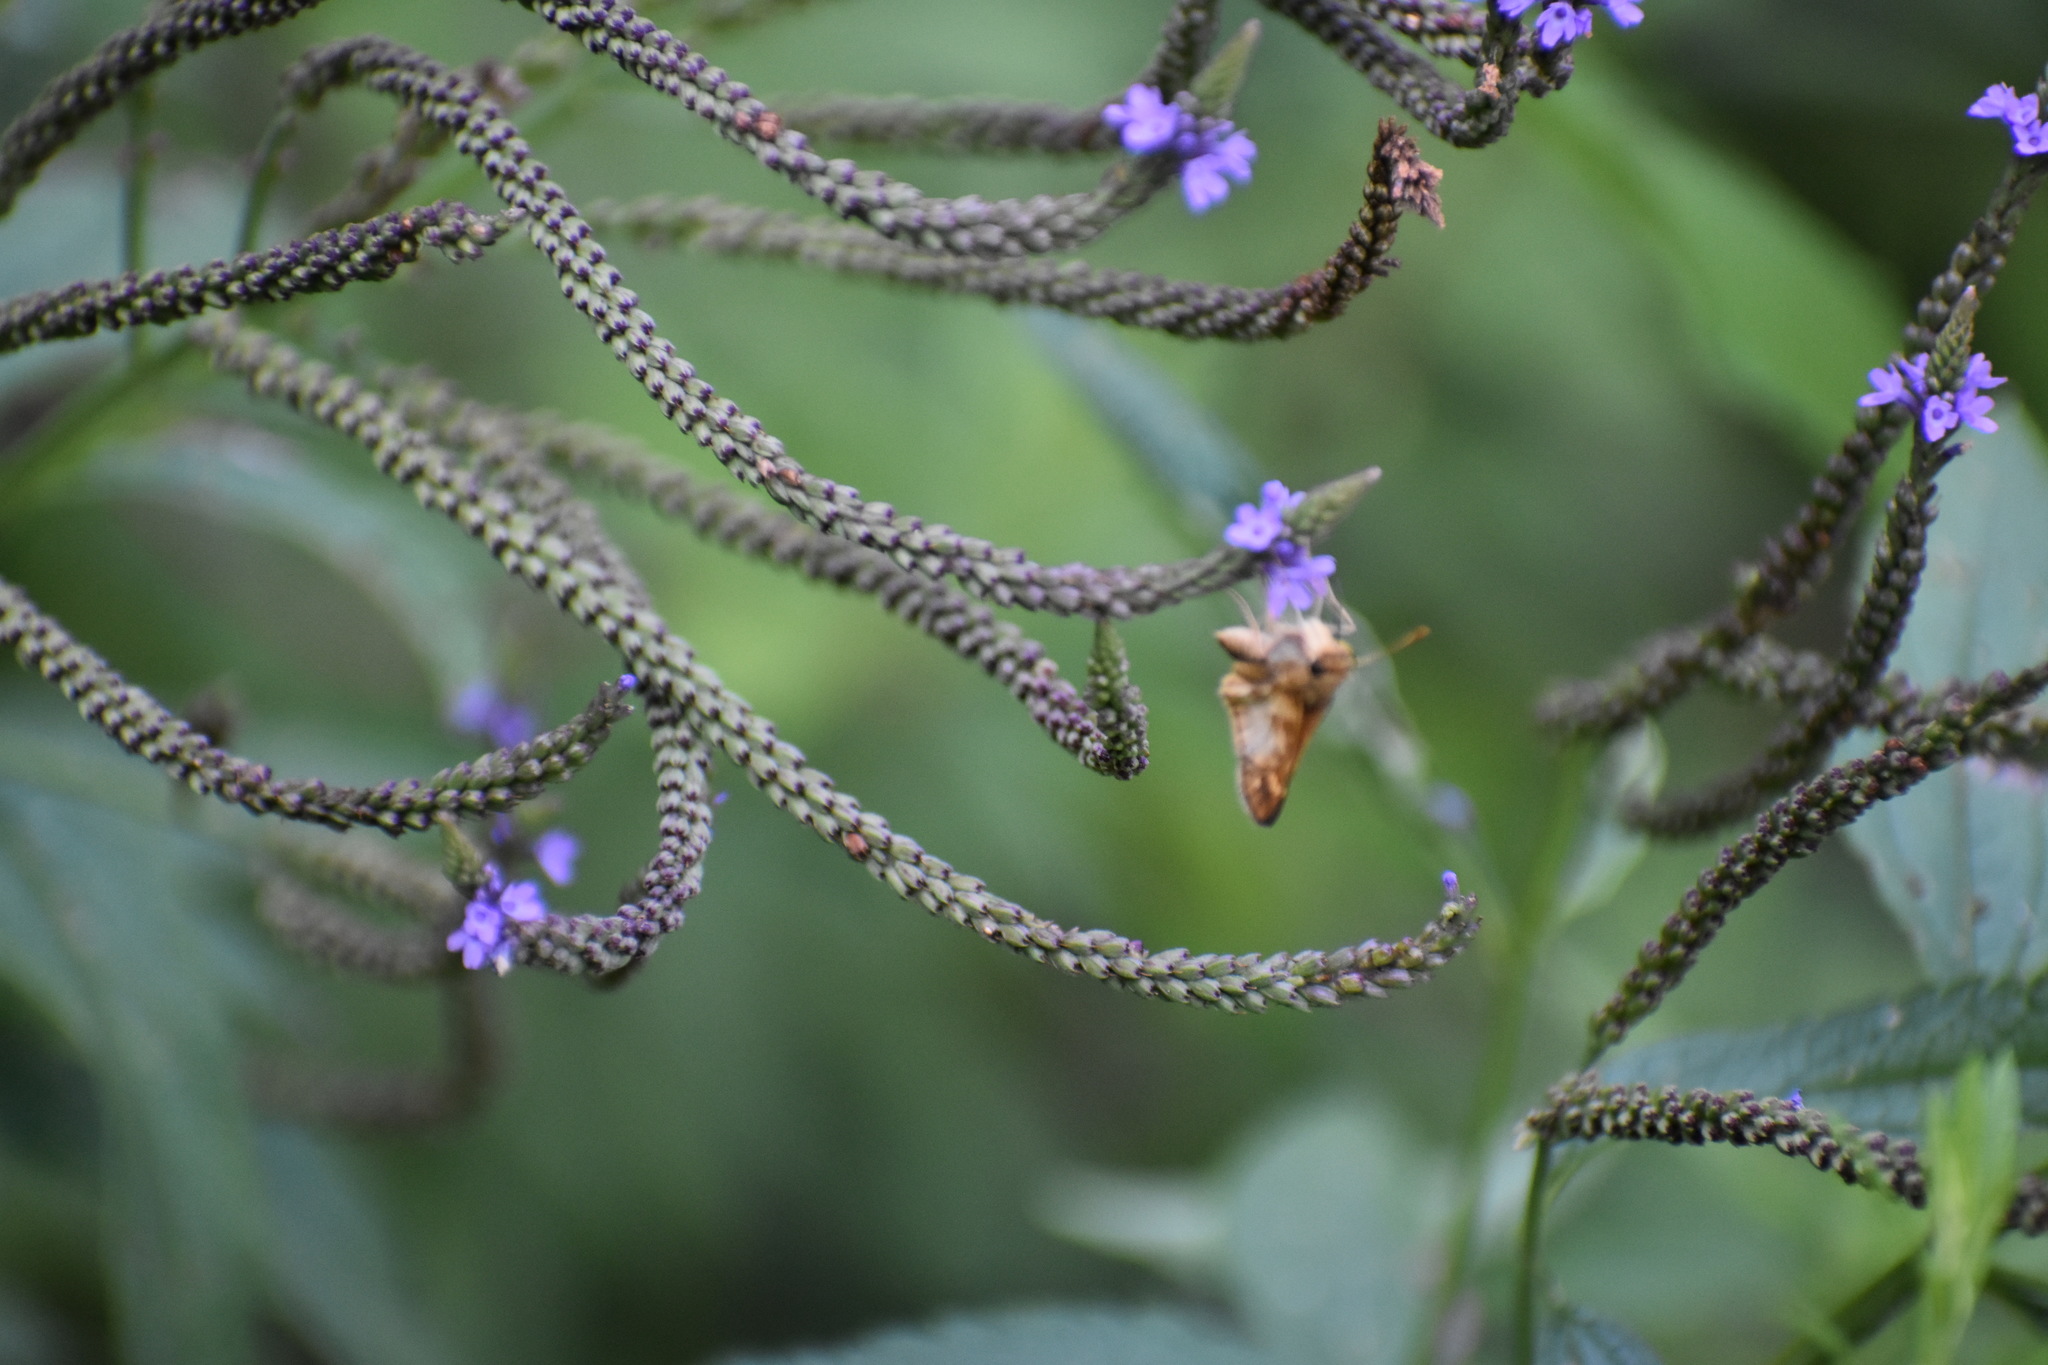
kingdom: Animalia
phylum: Arthropoda
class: Insecta
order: Lepidoptera
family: Hesperiidae
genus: Lon
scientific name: Lon zabulon
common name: Zabulon skipper
